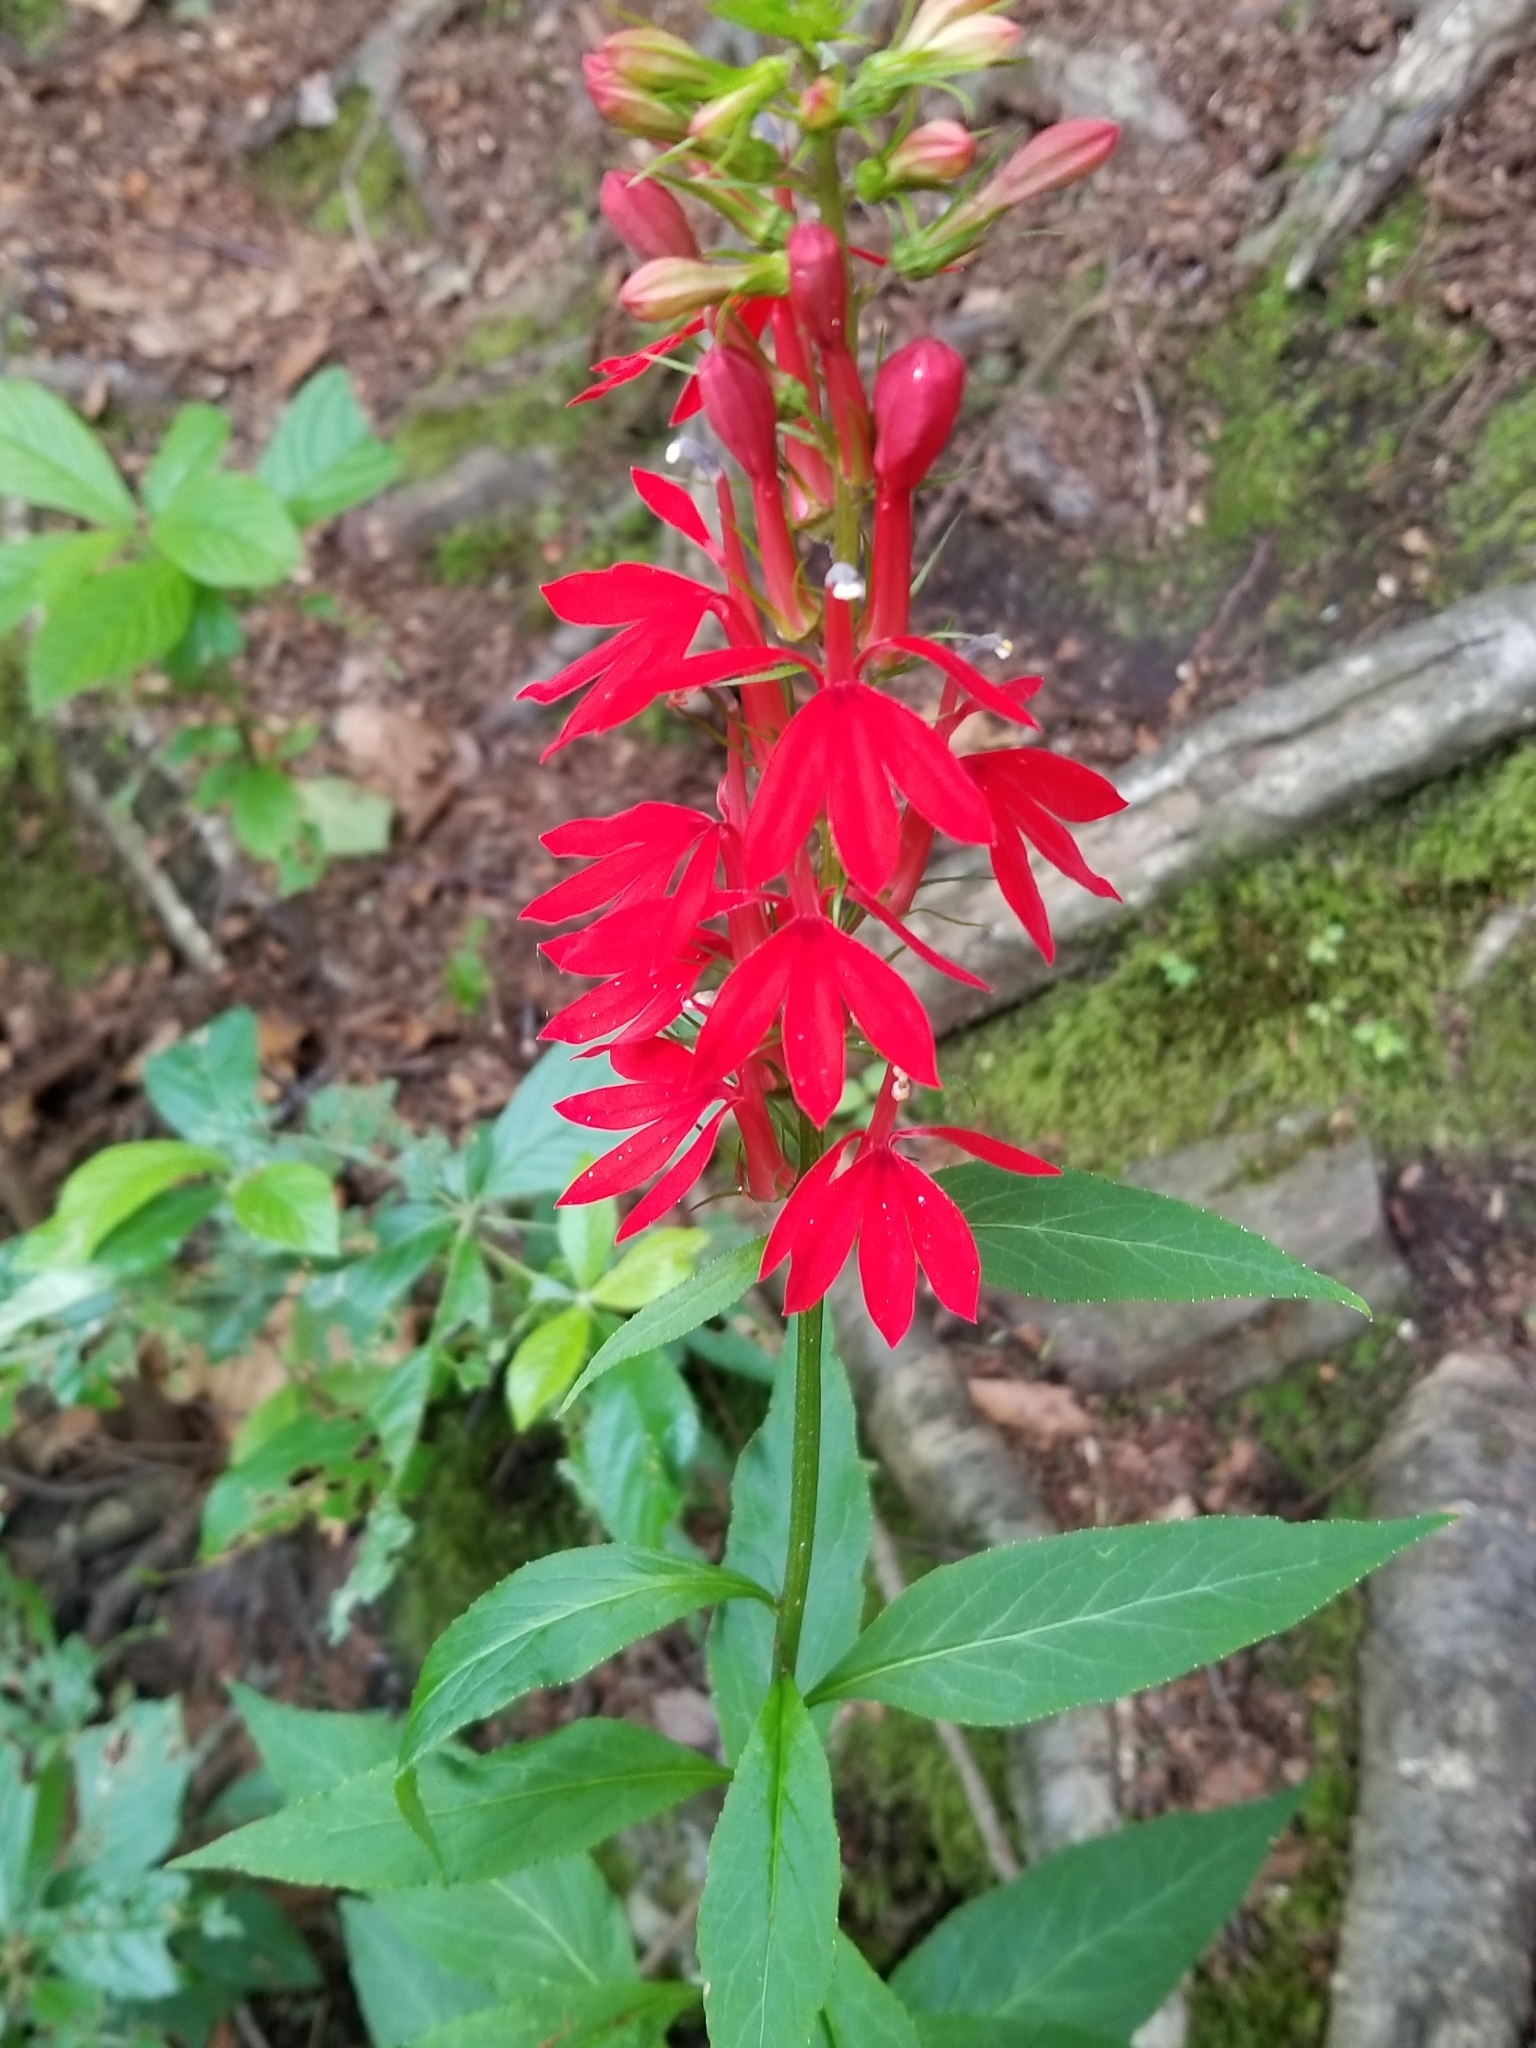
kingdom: Plantae
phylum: Tracheophyta
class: Magnoliopsida
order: Asterales
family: Campanulaceae
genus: Lobelia
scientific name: Lobelia cardinalis
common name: Cardinal flower
